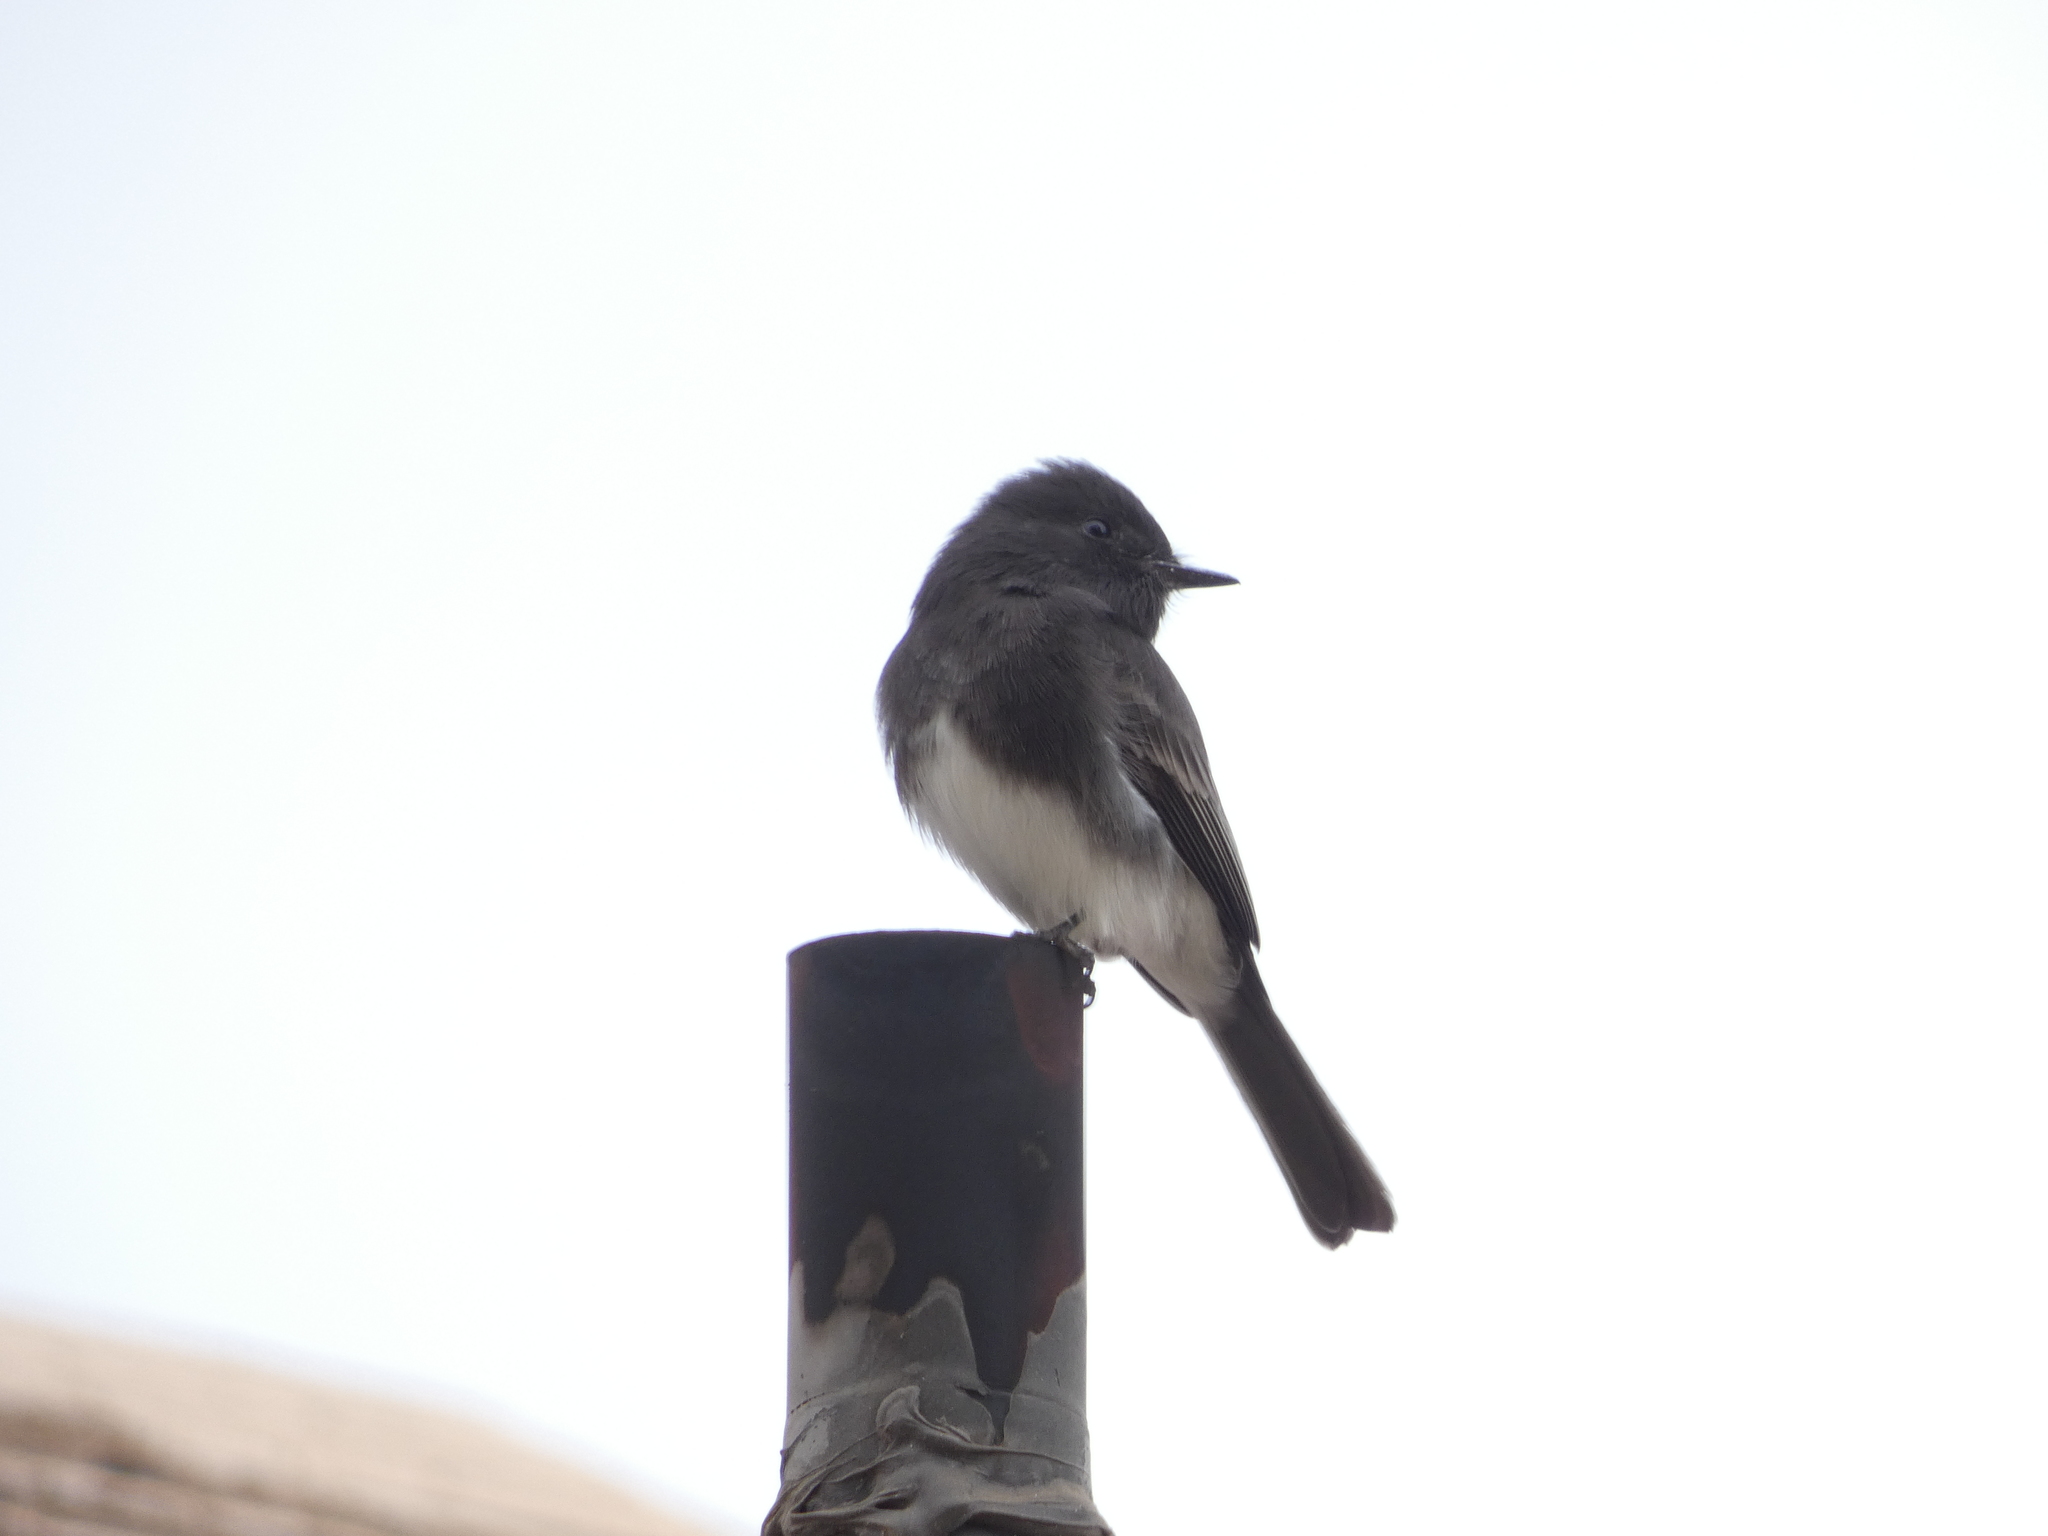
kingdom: Animalia
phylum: Chordata
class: Aves
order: Passeriformes
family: Tyrannidae
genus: Sayornis
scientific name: Sayornis nigricans
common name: Black phoebe
